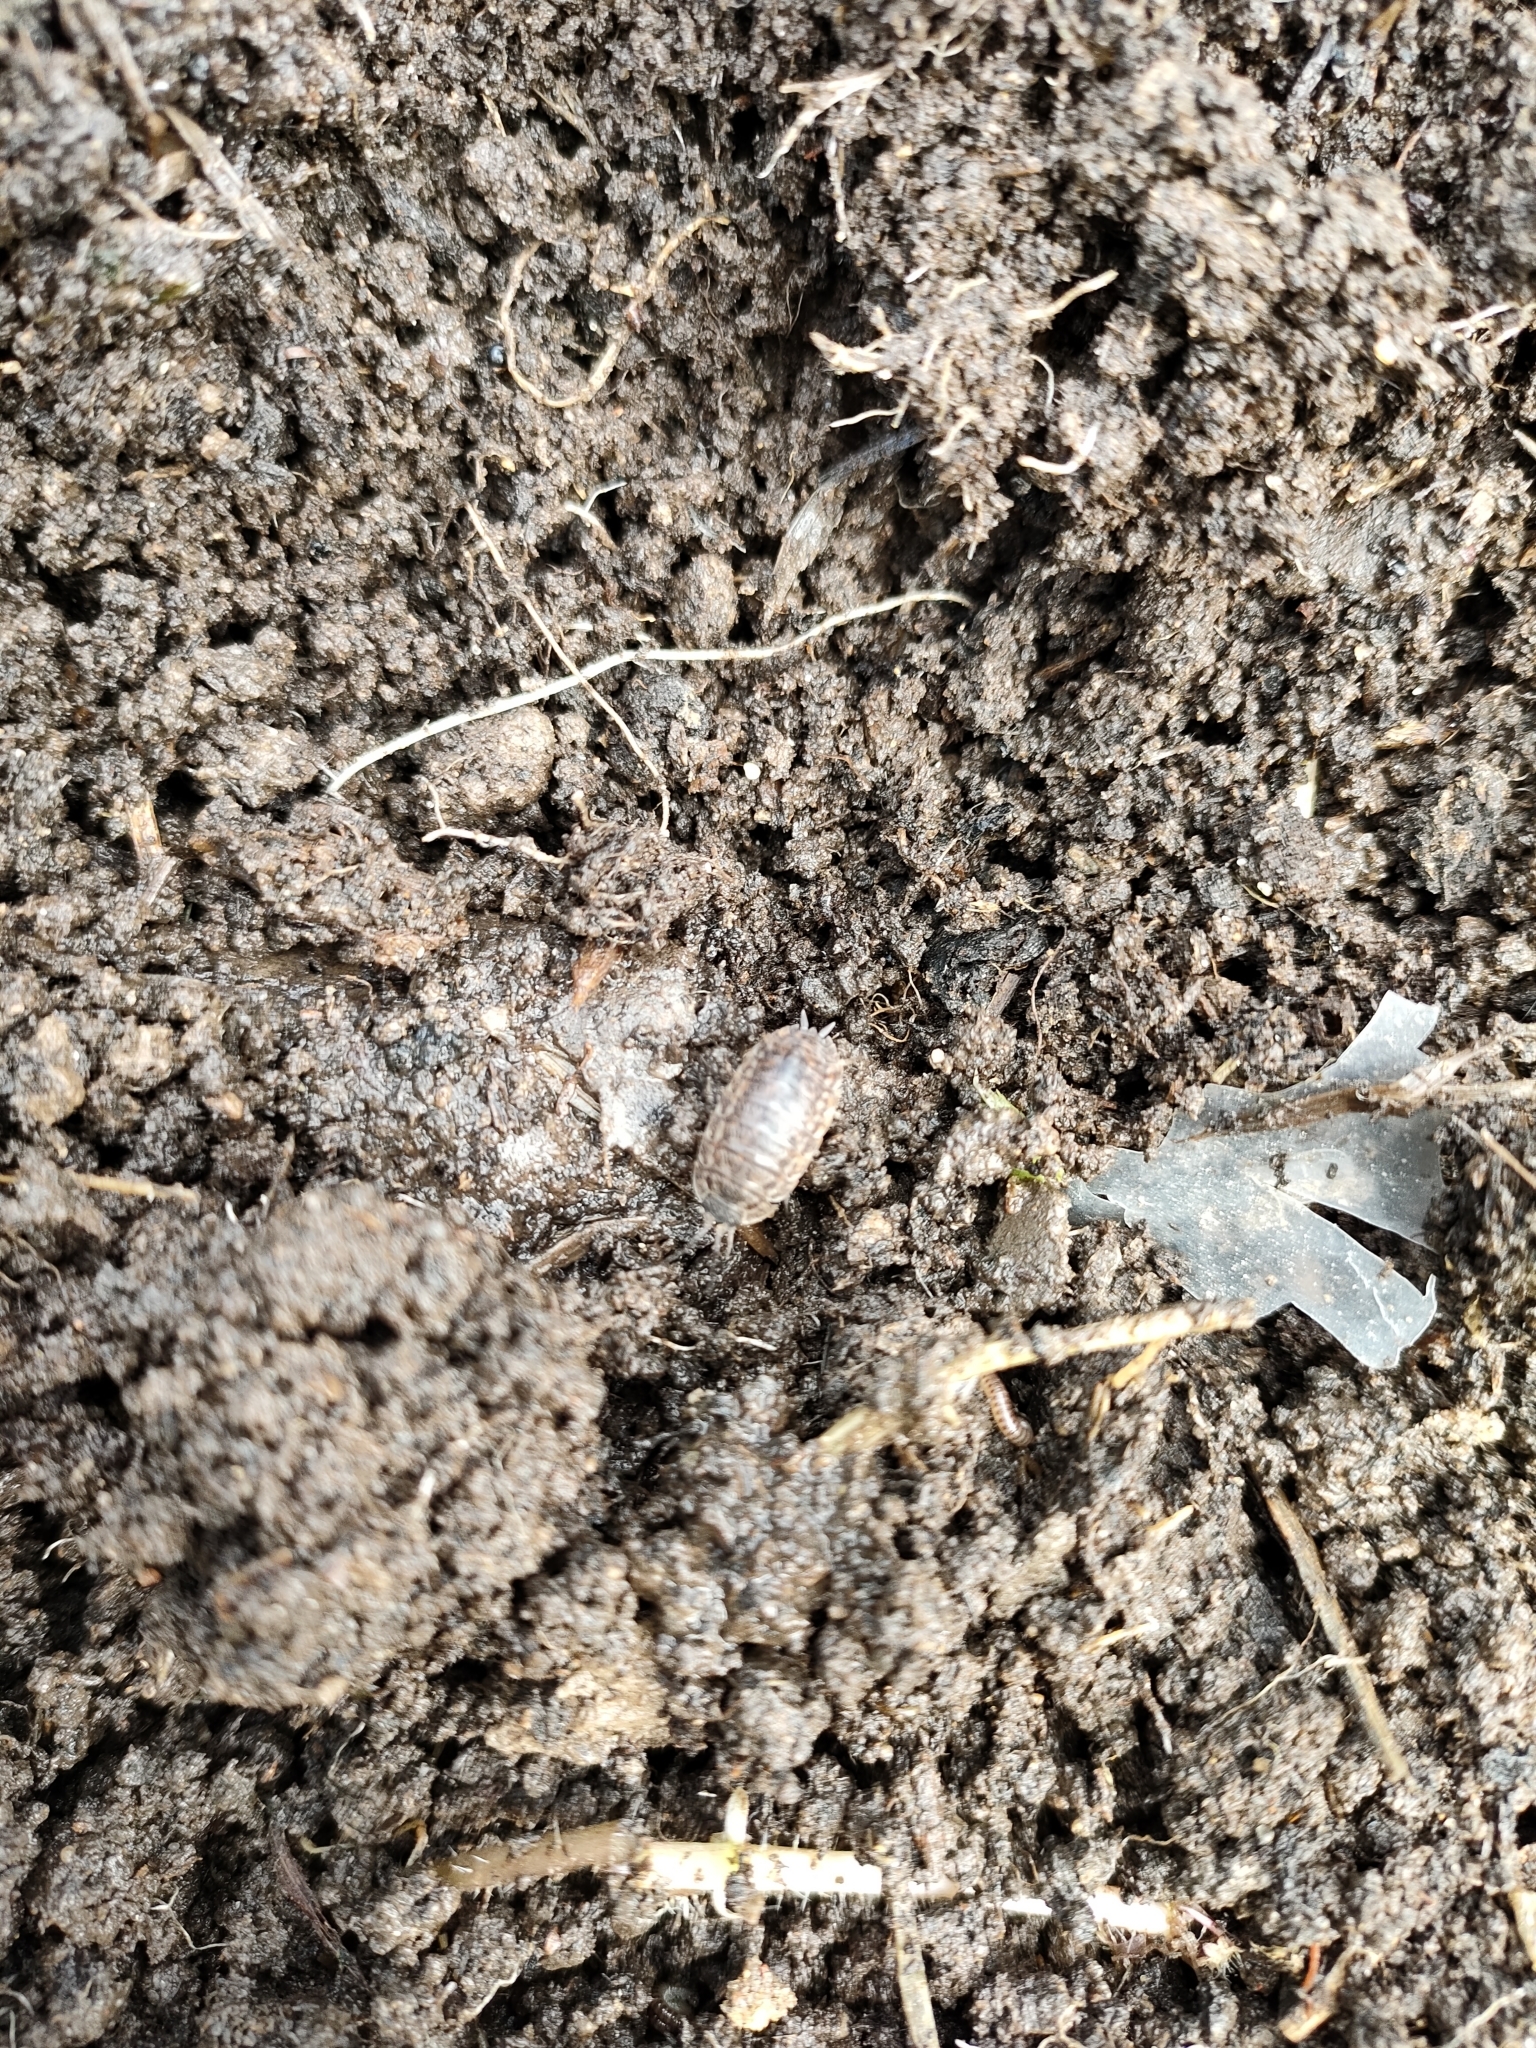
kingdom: Animalia
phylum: Arthropoda
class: Malacostraca
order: Isopoda
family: Trachelipodidae
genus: Trachelipus
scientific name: Trachelipus rathkii
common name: Isopod
